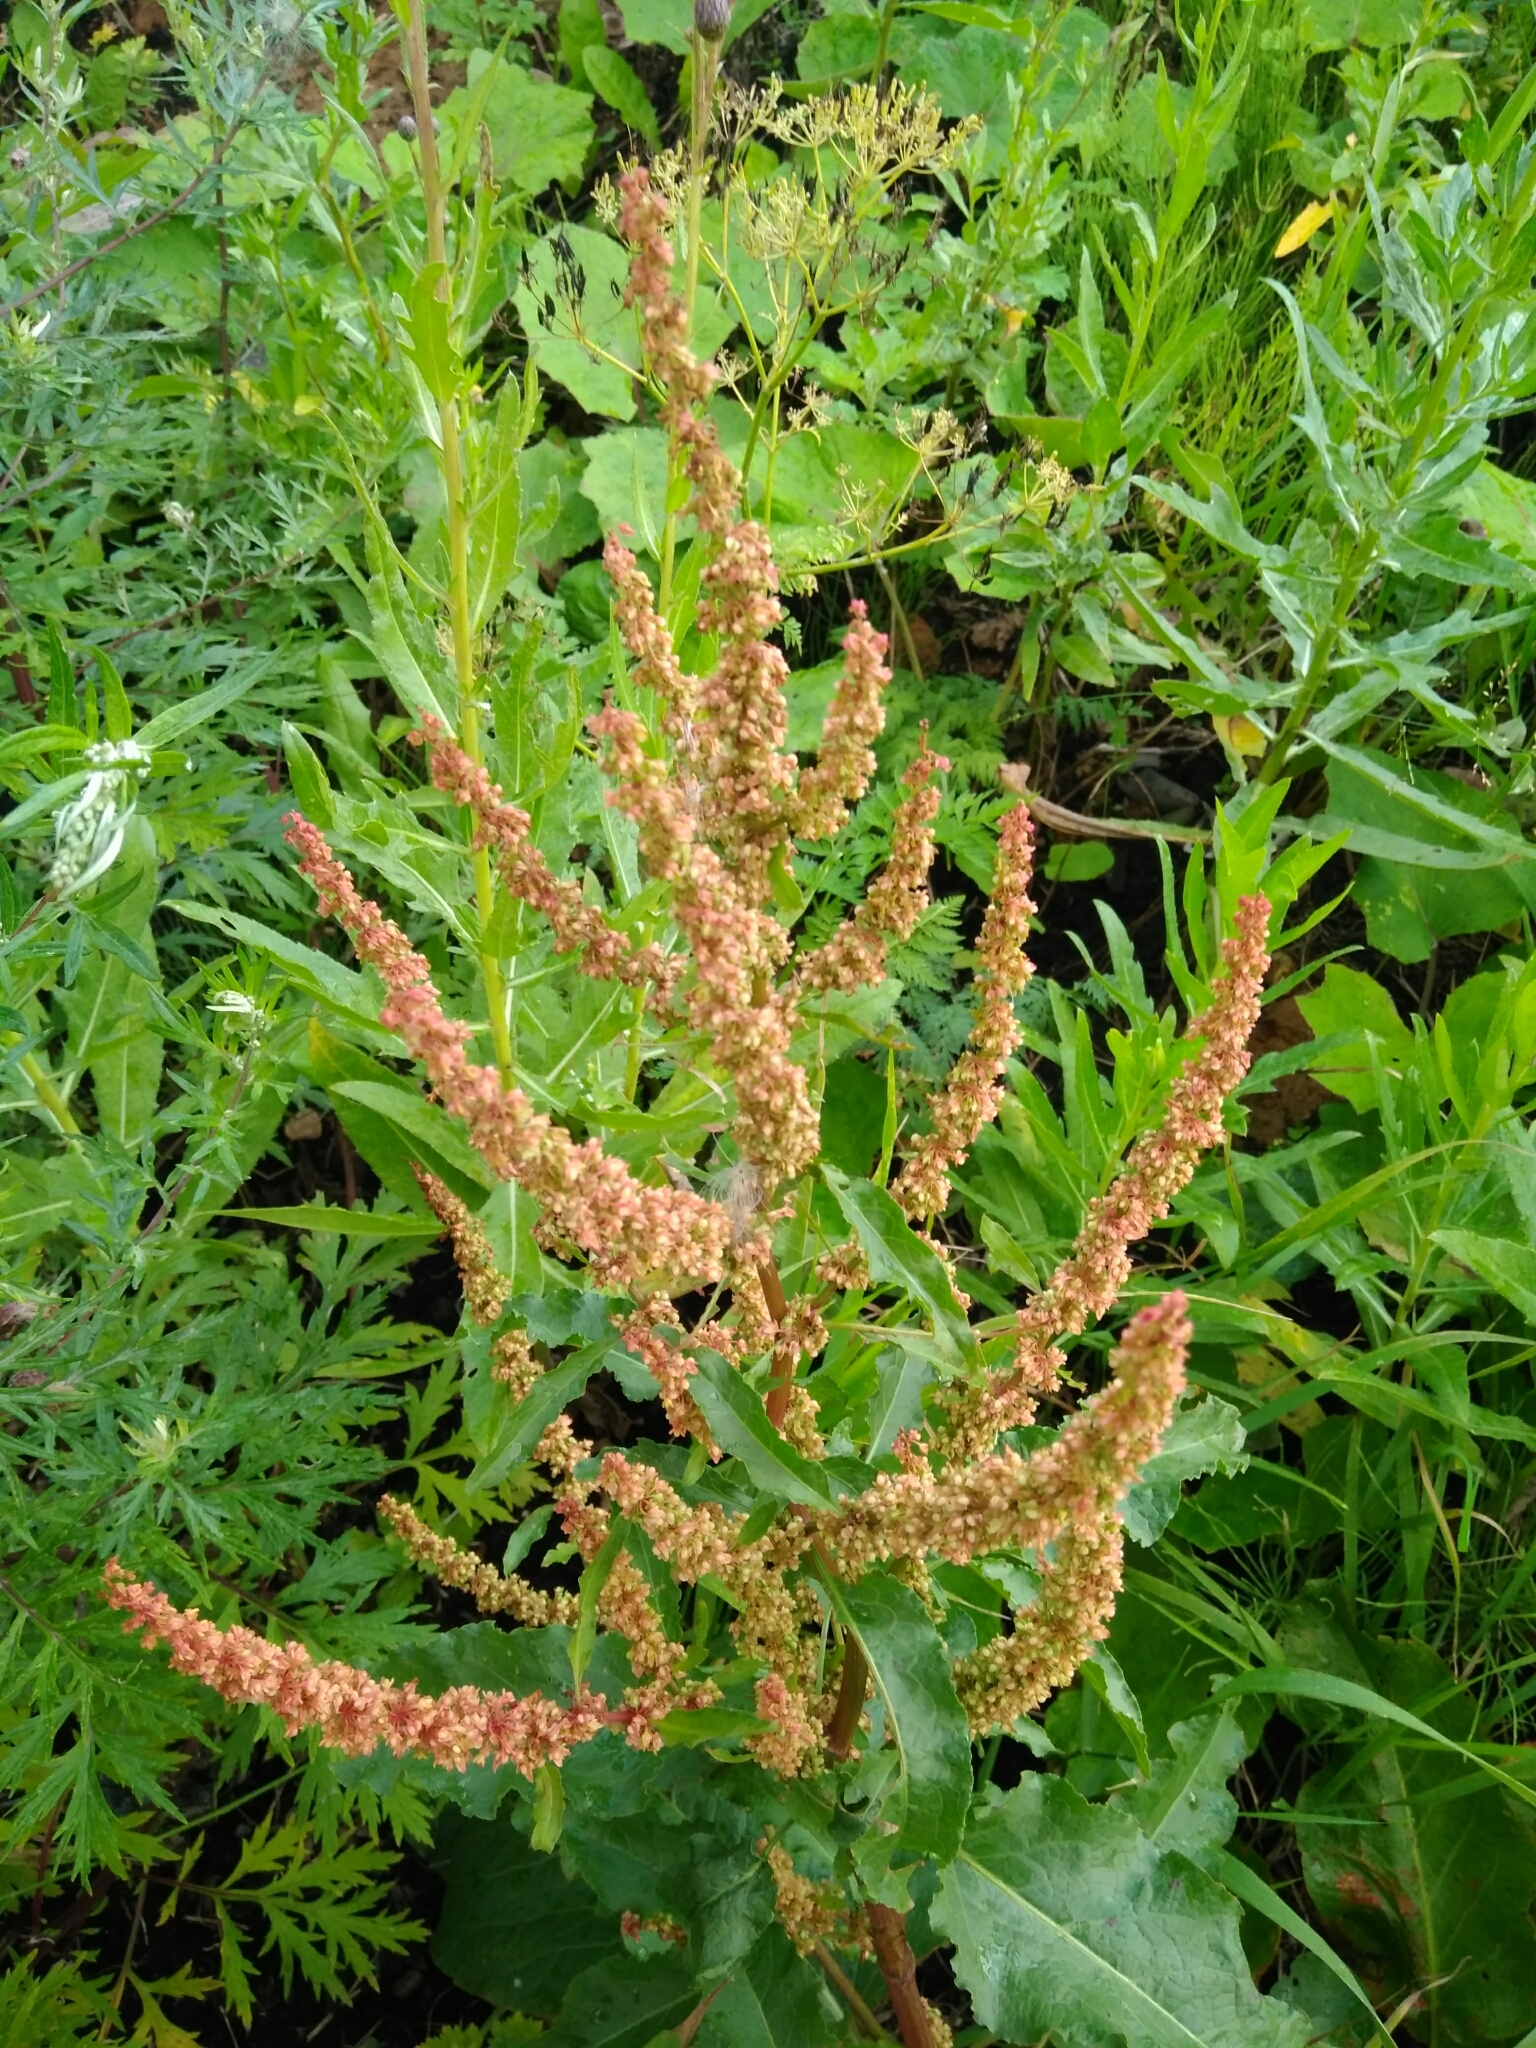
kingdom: Plantae
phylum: Tracheophyta
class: Magnoliopsida
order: Caryophyllales
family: Polygonaceae
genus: Rumex
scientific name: Rumex obtusifolius
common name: Bitter dock
